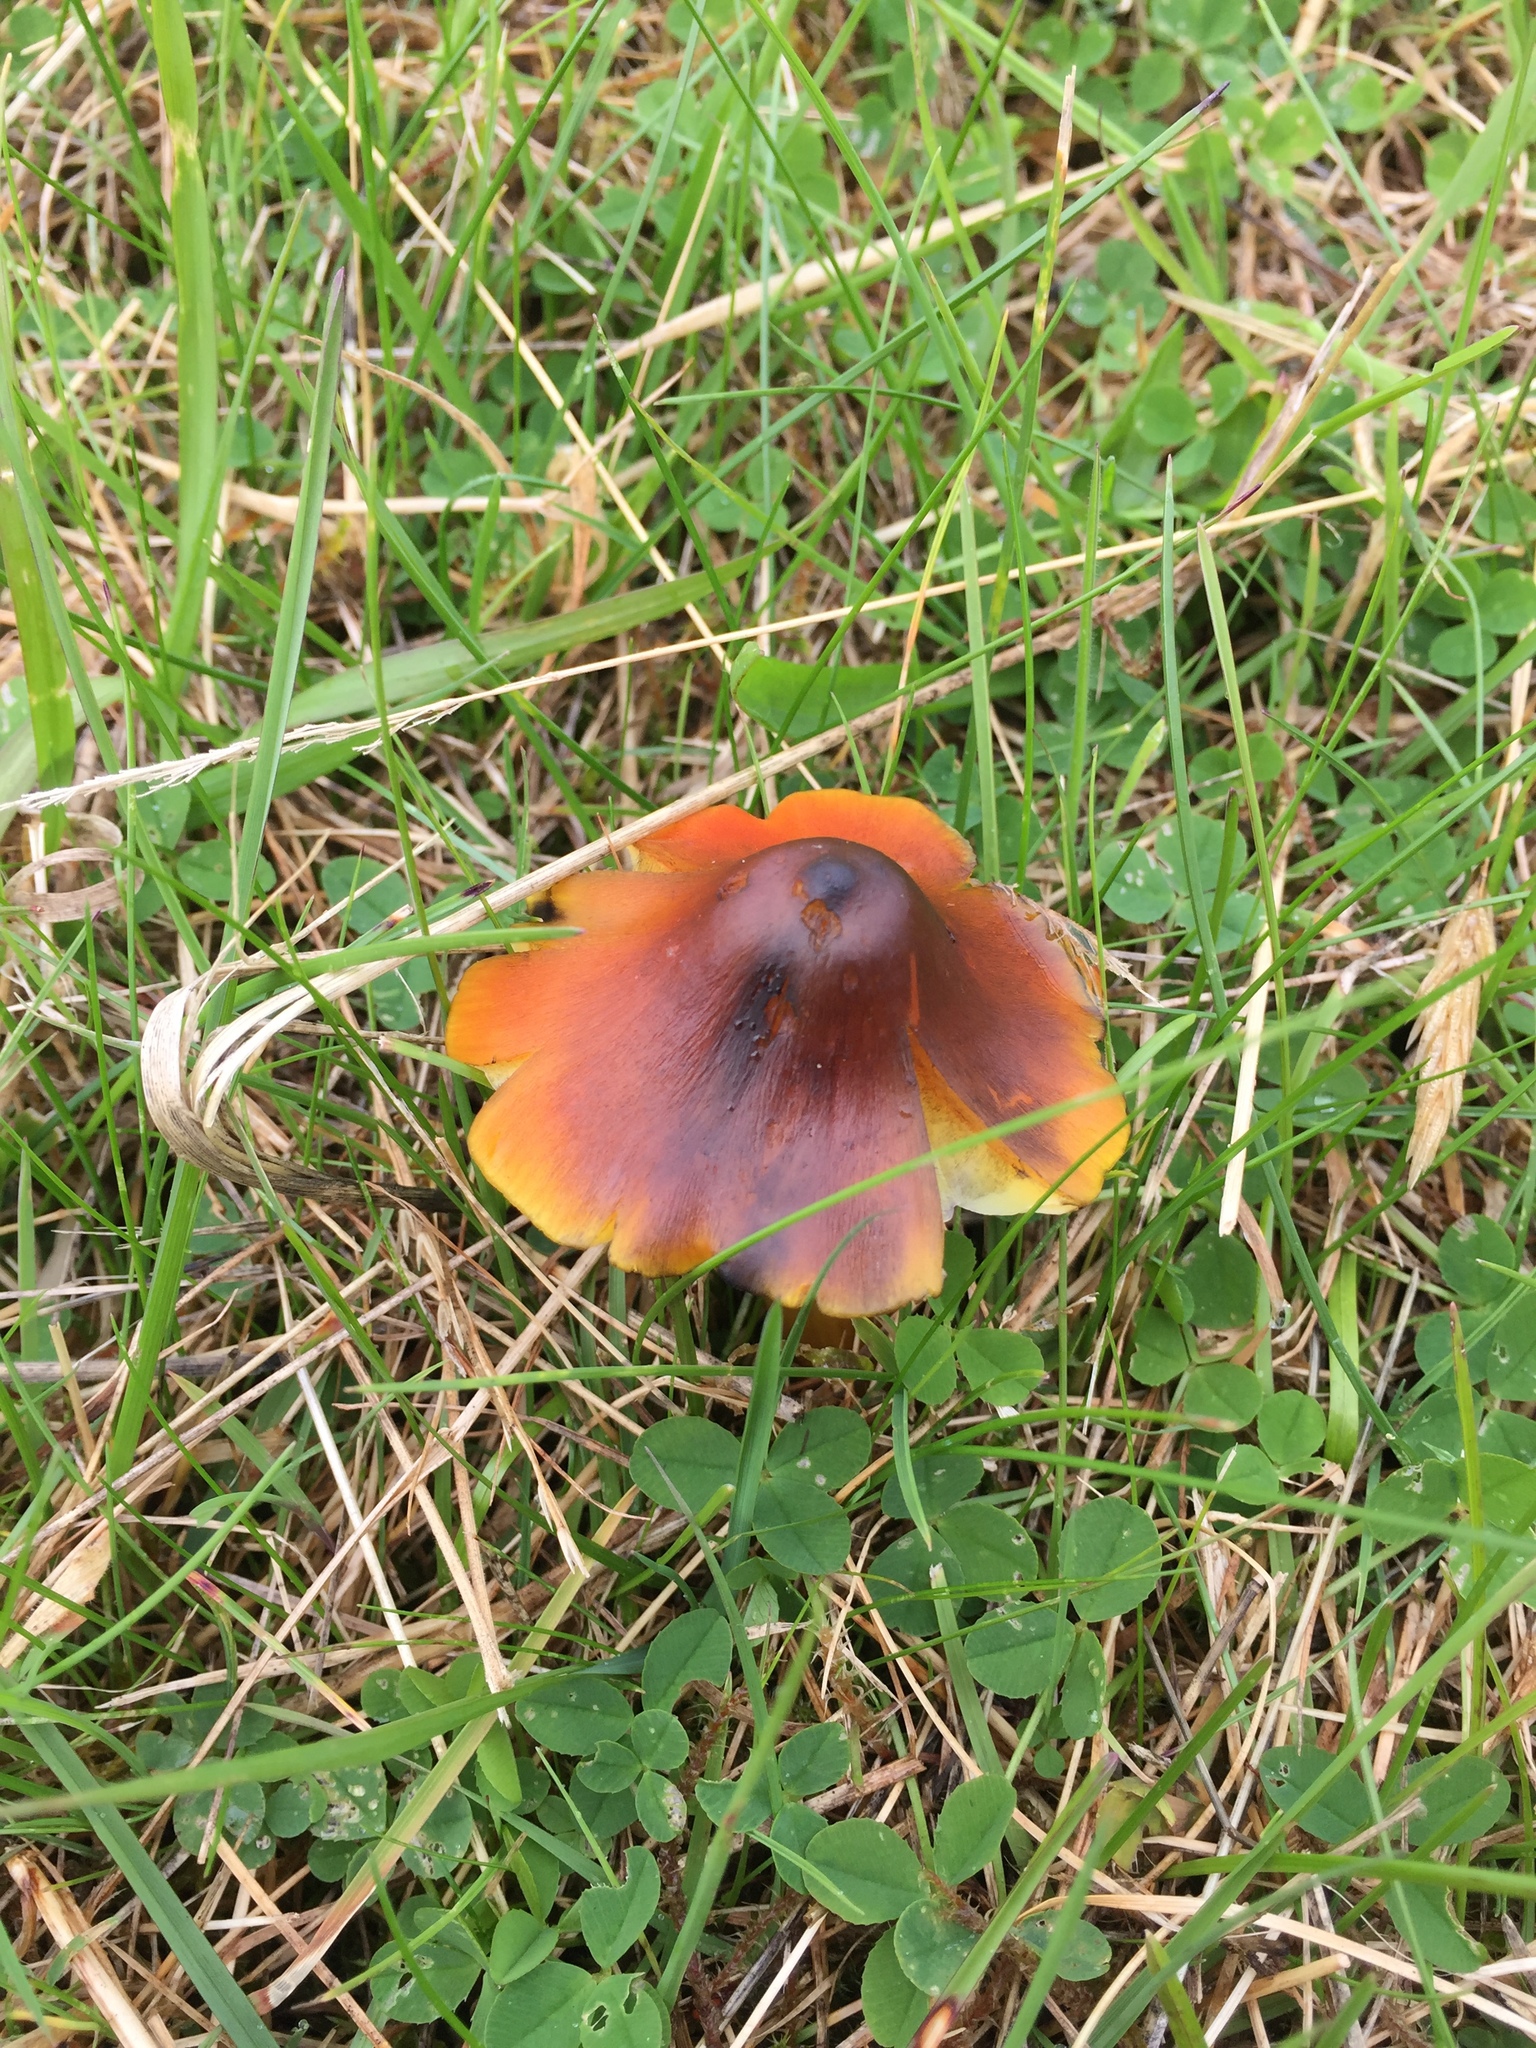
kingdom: Fungi
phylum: Basidiomycota
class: Agaricomycetes
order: Agaricales
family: Hygrophoraceae
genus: Hygrocybe
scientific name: Hygrocybe conica
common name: Blackening wax-cap
